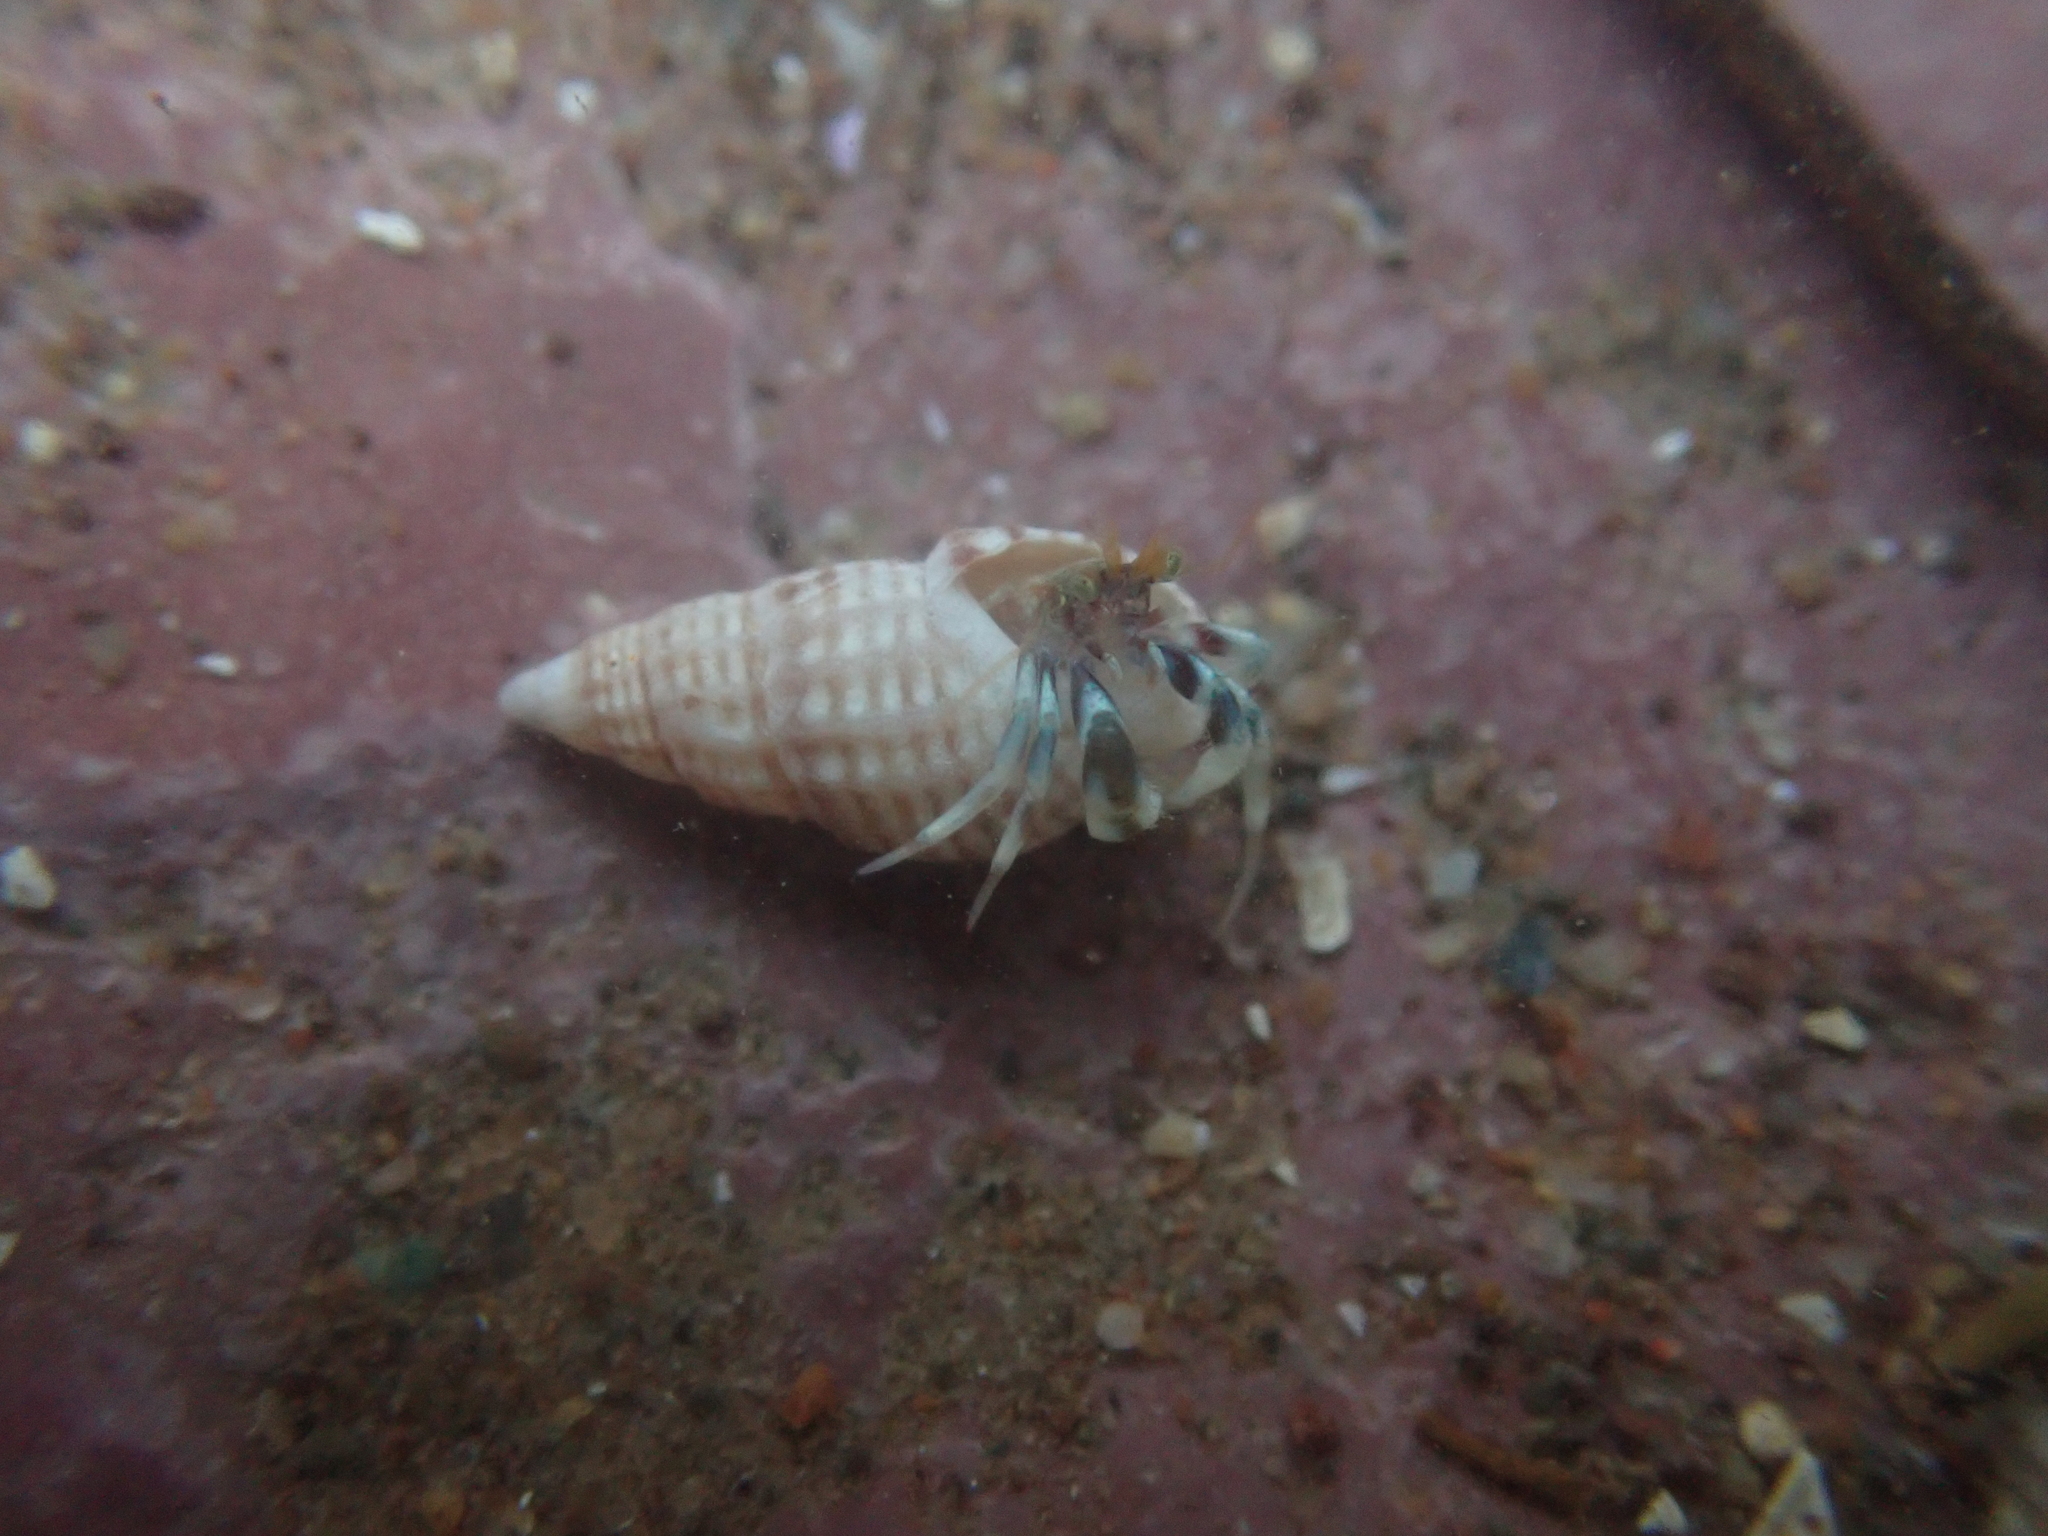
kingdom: Animalia
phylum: Arthropoda
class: Malacostraca
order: Decapoda
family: Paguridae
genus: Pagurus
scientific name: Pagurus longicarpus
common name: Long-armed hermit crab
